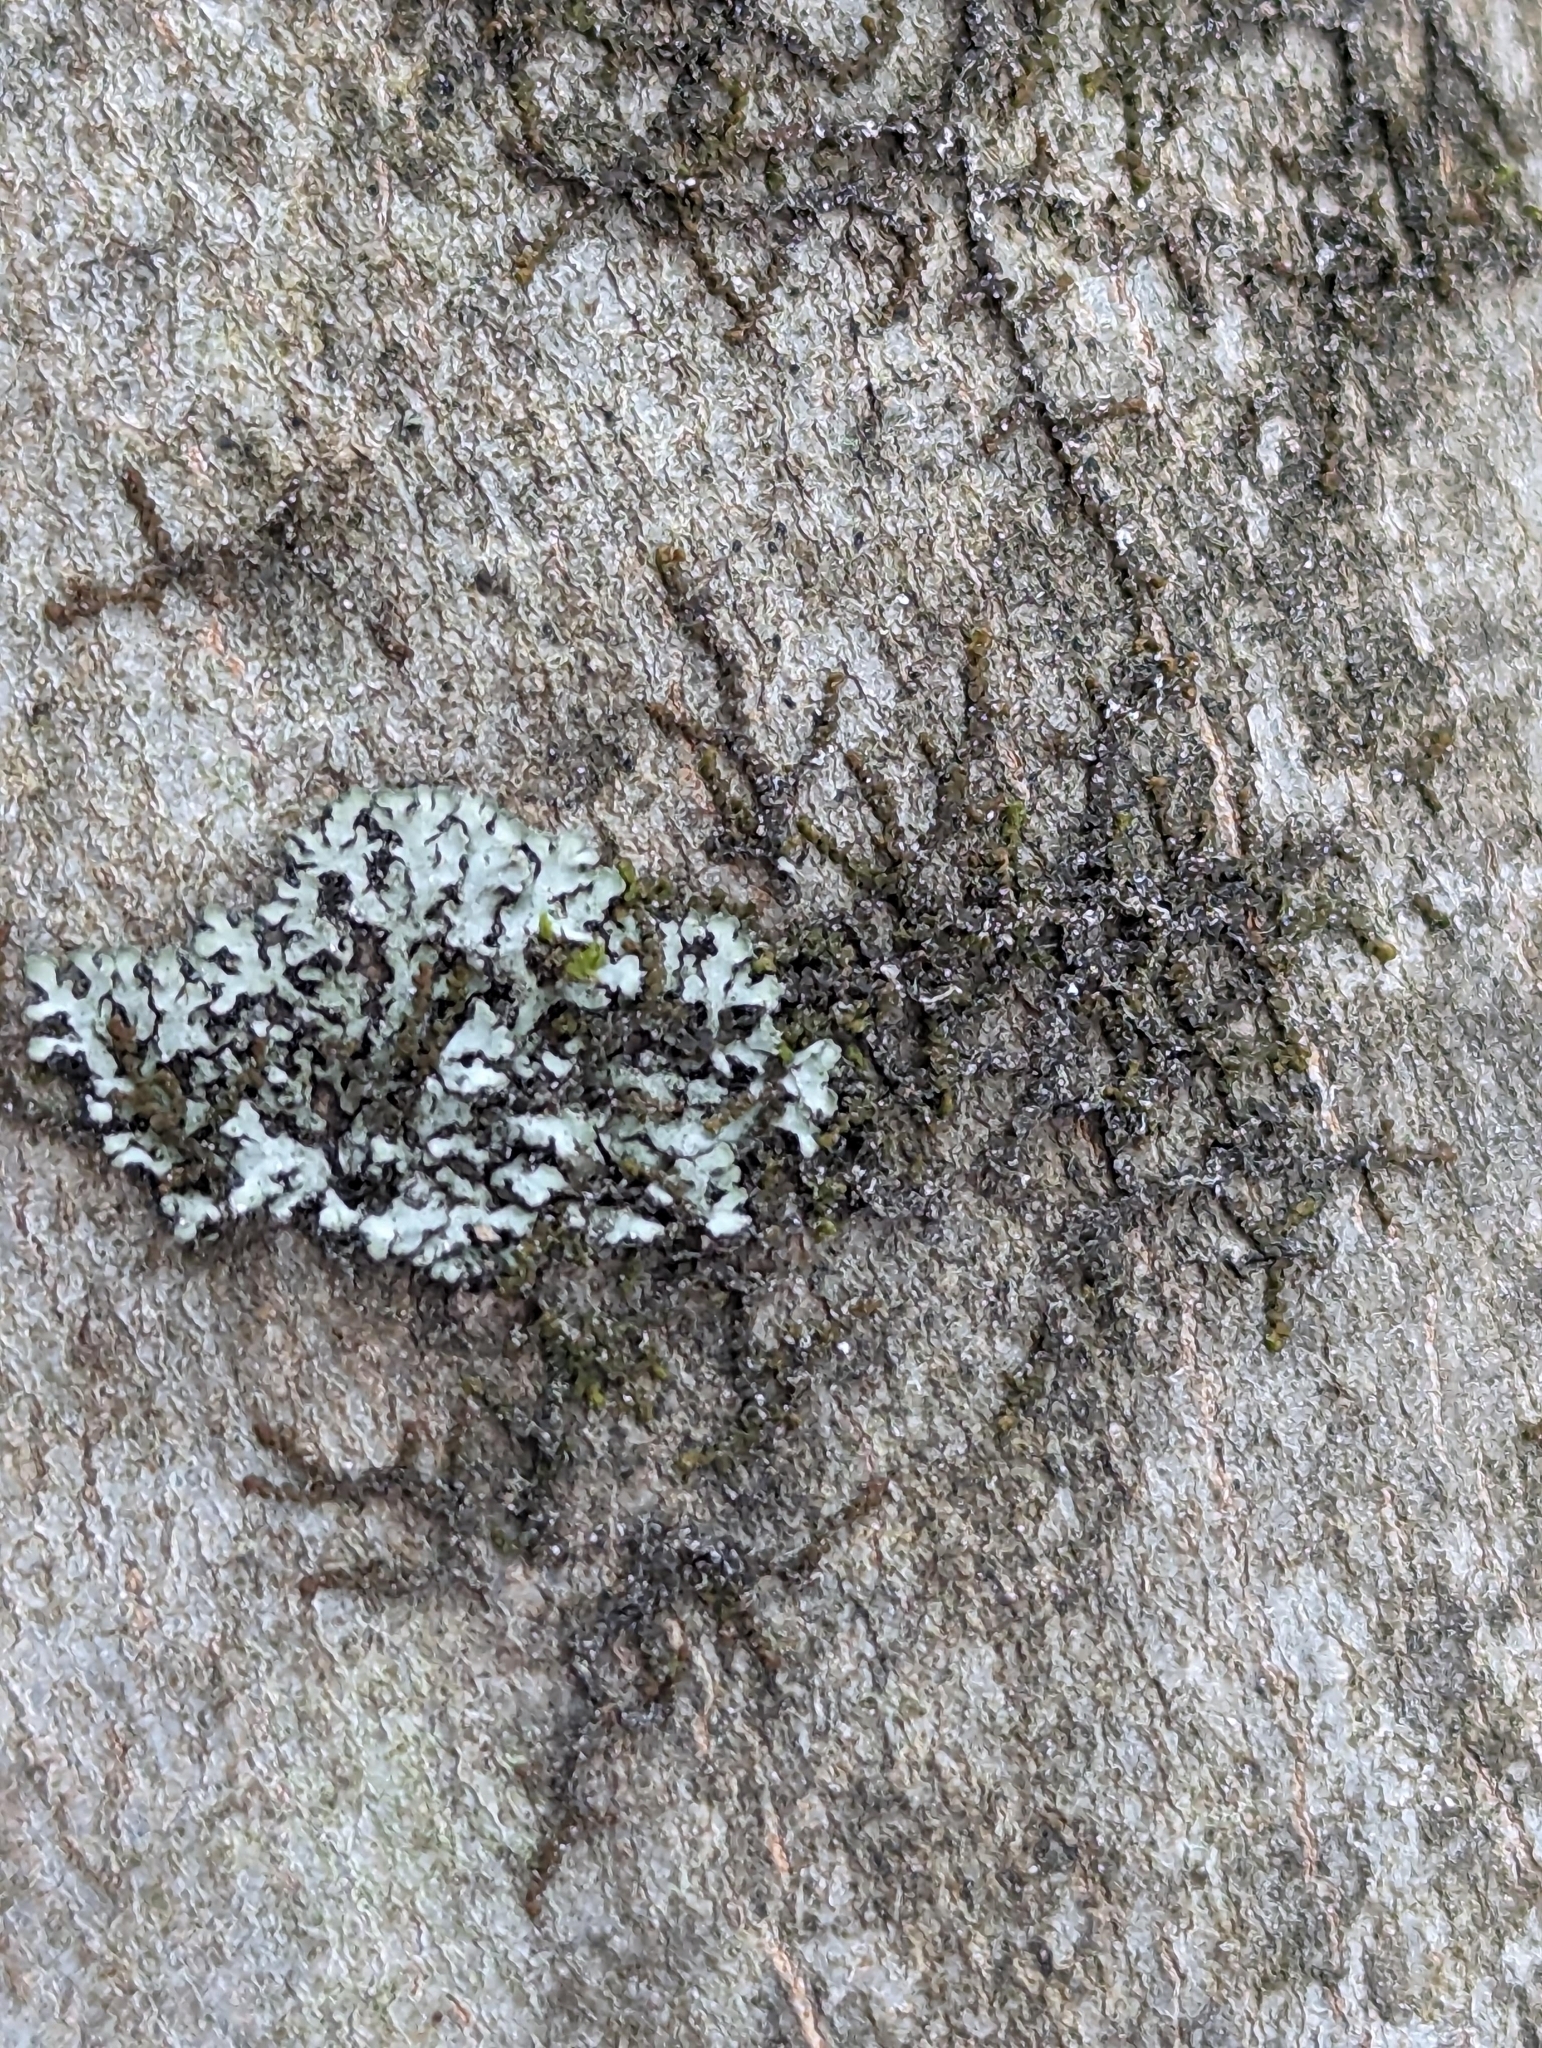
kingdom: Plantae
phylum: Marchantiophyta
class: Jungermanniopsida
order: Porellales
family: Frullaniaceae
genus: Frullania
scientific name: Frullania eboracensis
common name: New york scalewort
